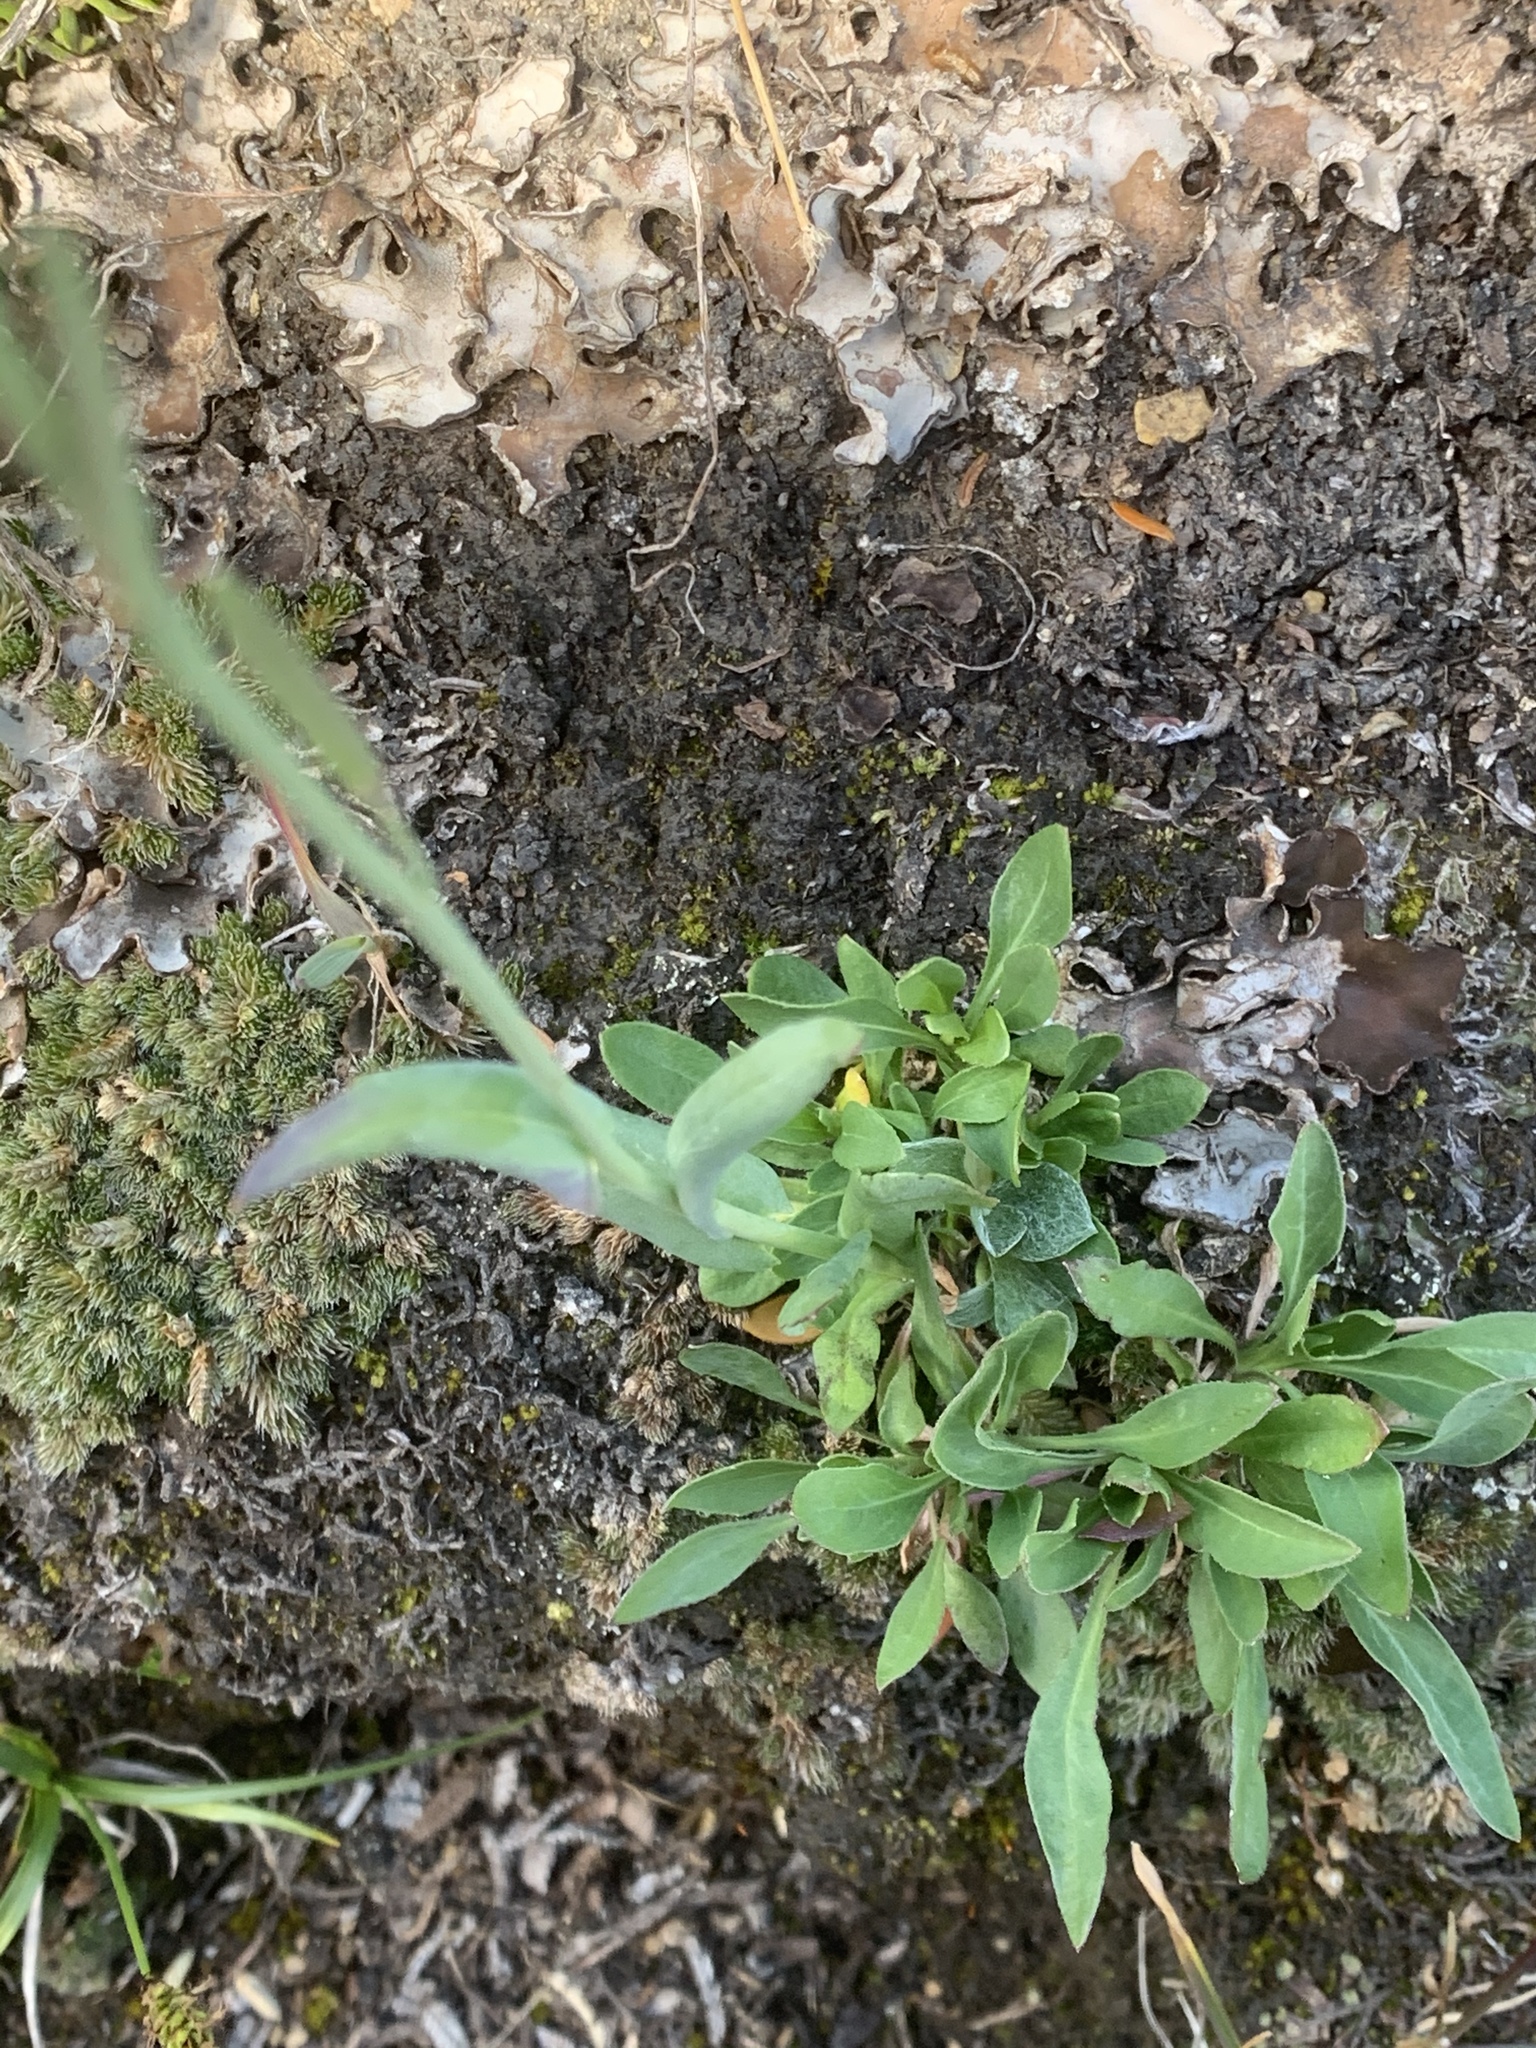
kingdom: Plantae
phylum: Tracheophyta
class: Magnoliopsida
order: Brassicales
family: Brassicaceae
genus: Boechera
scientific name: Boechera lyallii
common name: Lyall's rockcress
